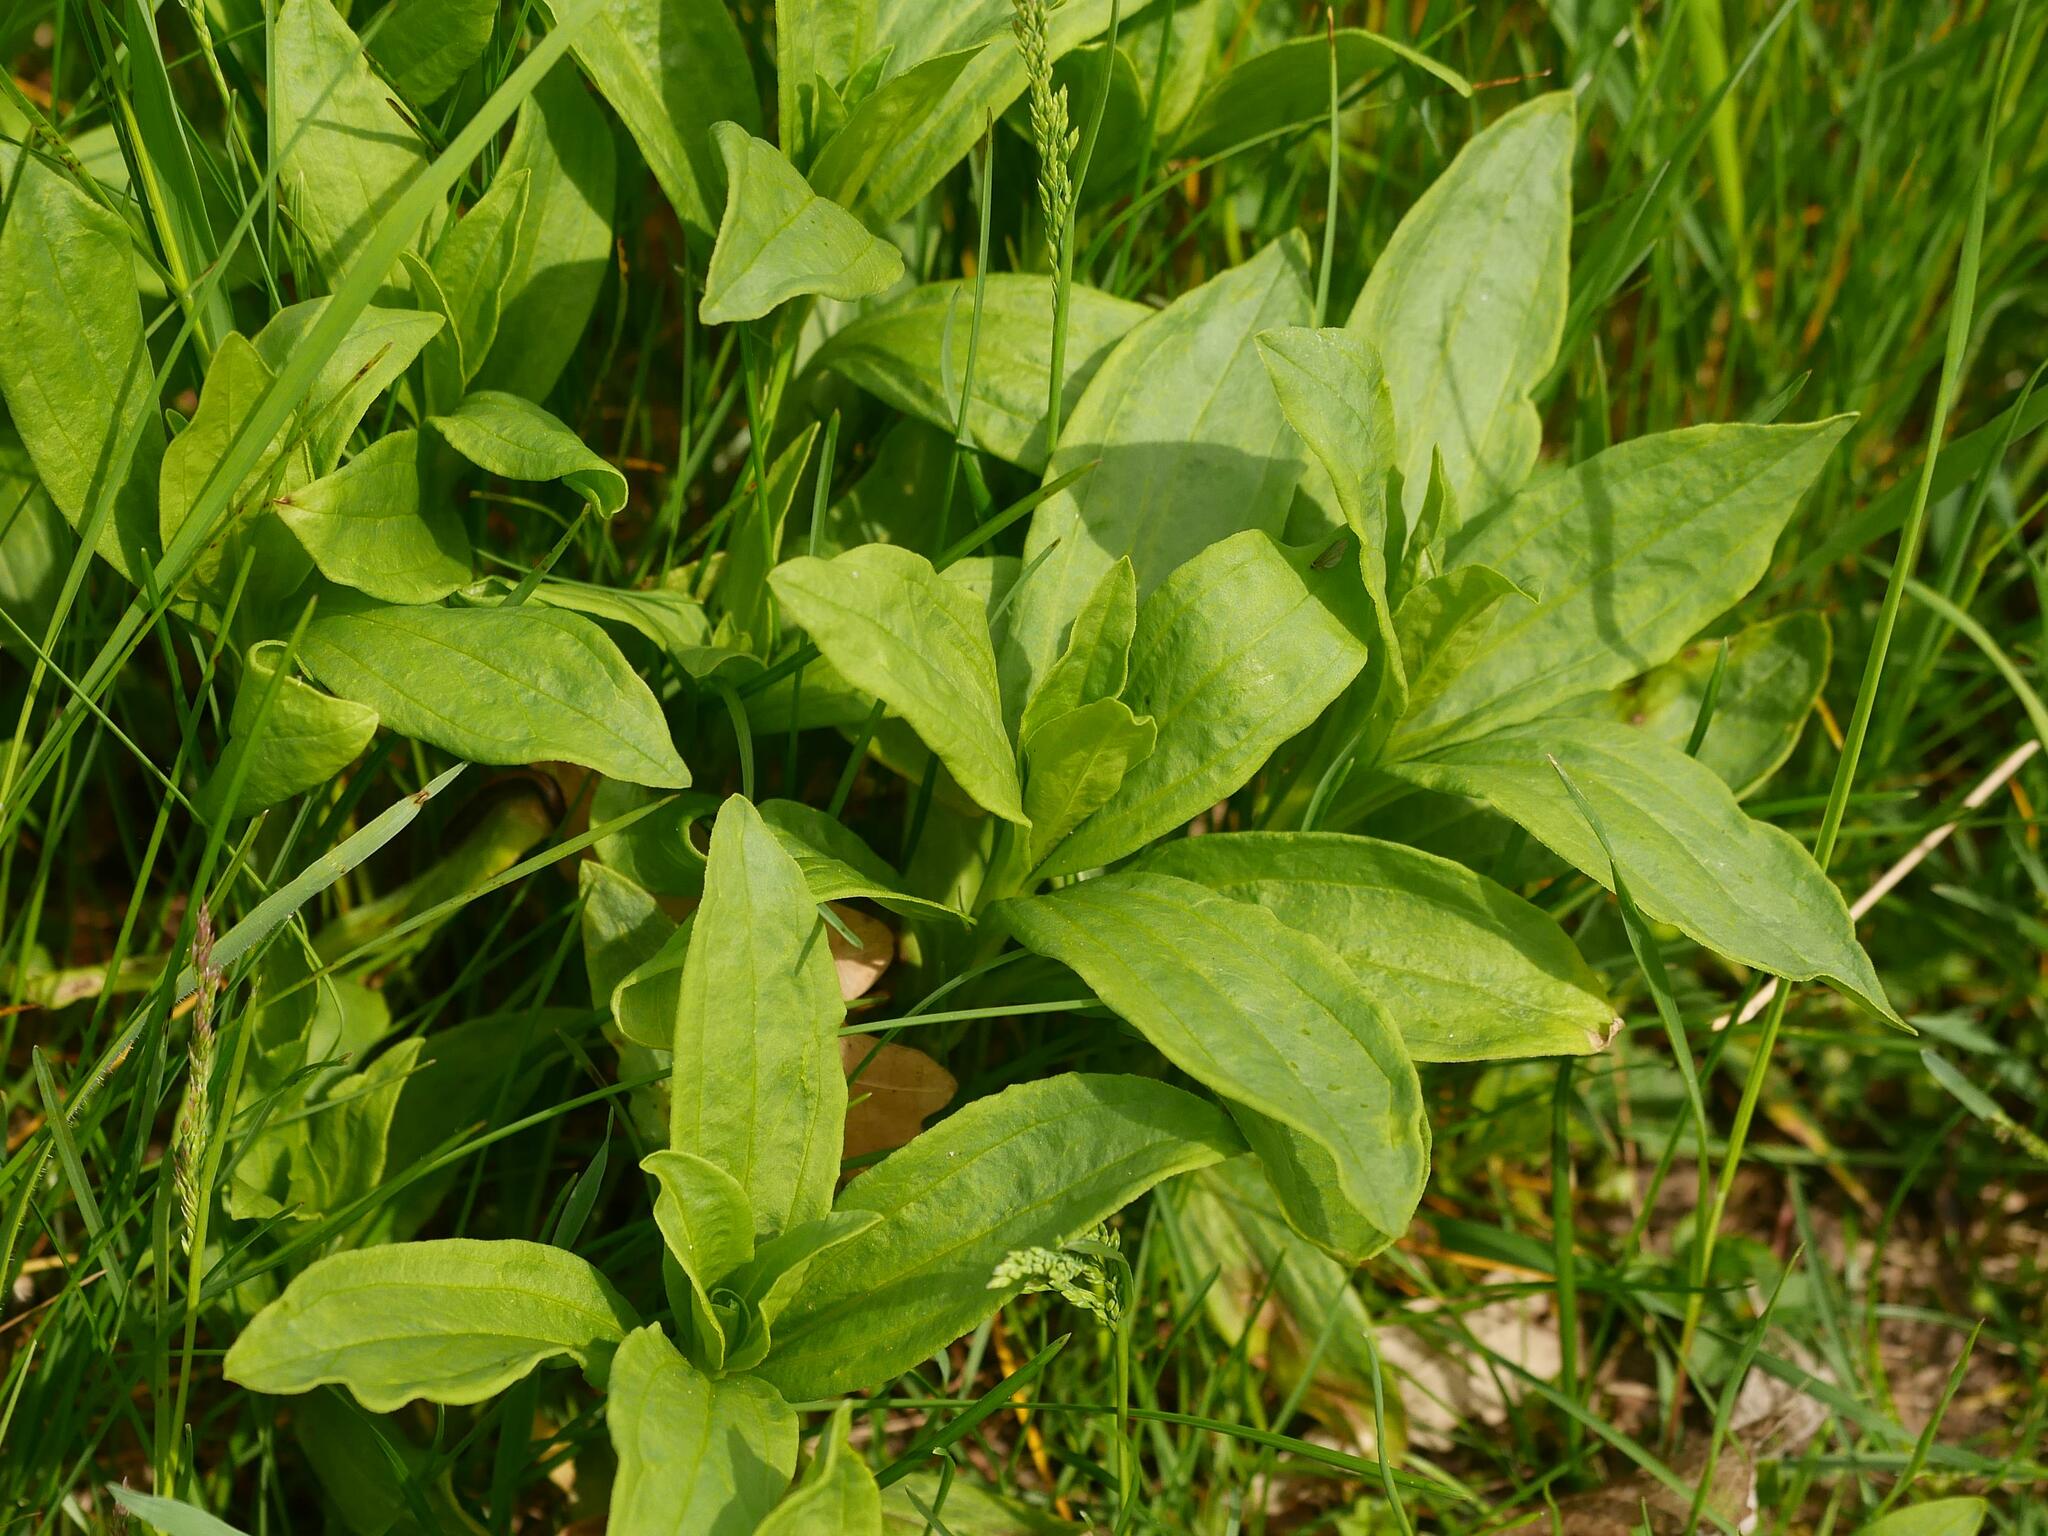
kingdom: Plantae
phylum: Tracheophyta
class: Magnoliopsida
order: Caryophyllales
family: Caryophyllaceae
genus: Saponaria
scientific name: Saponaria officinalis
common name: Soapwort
